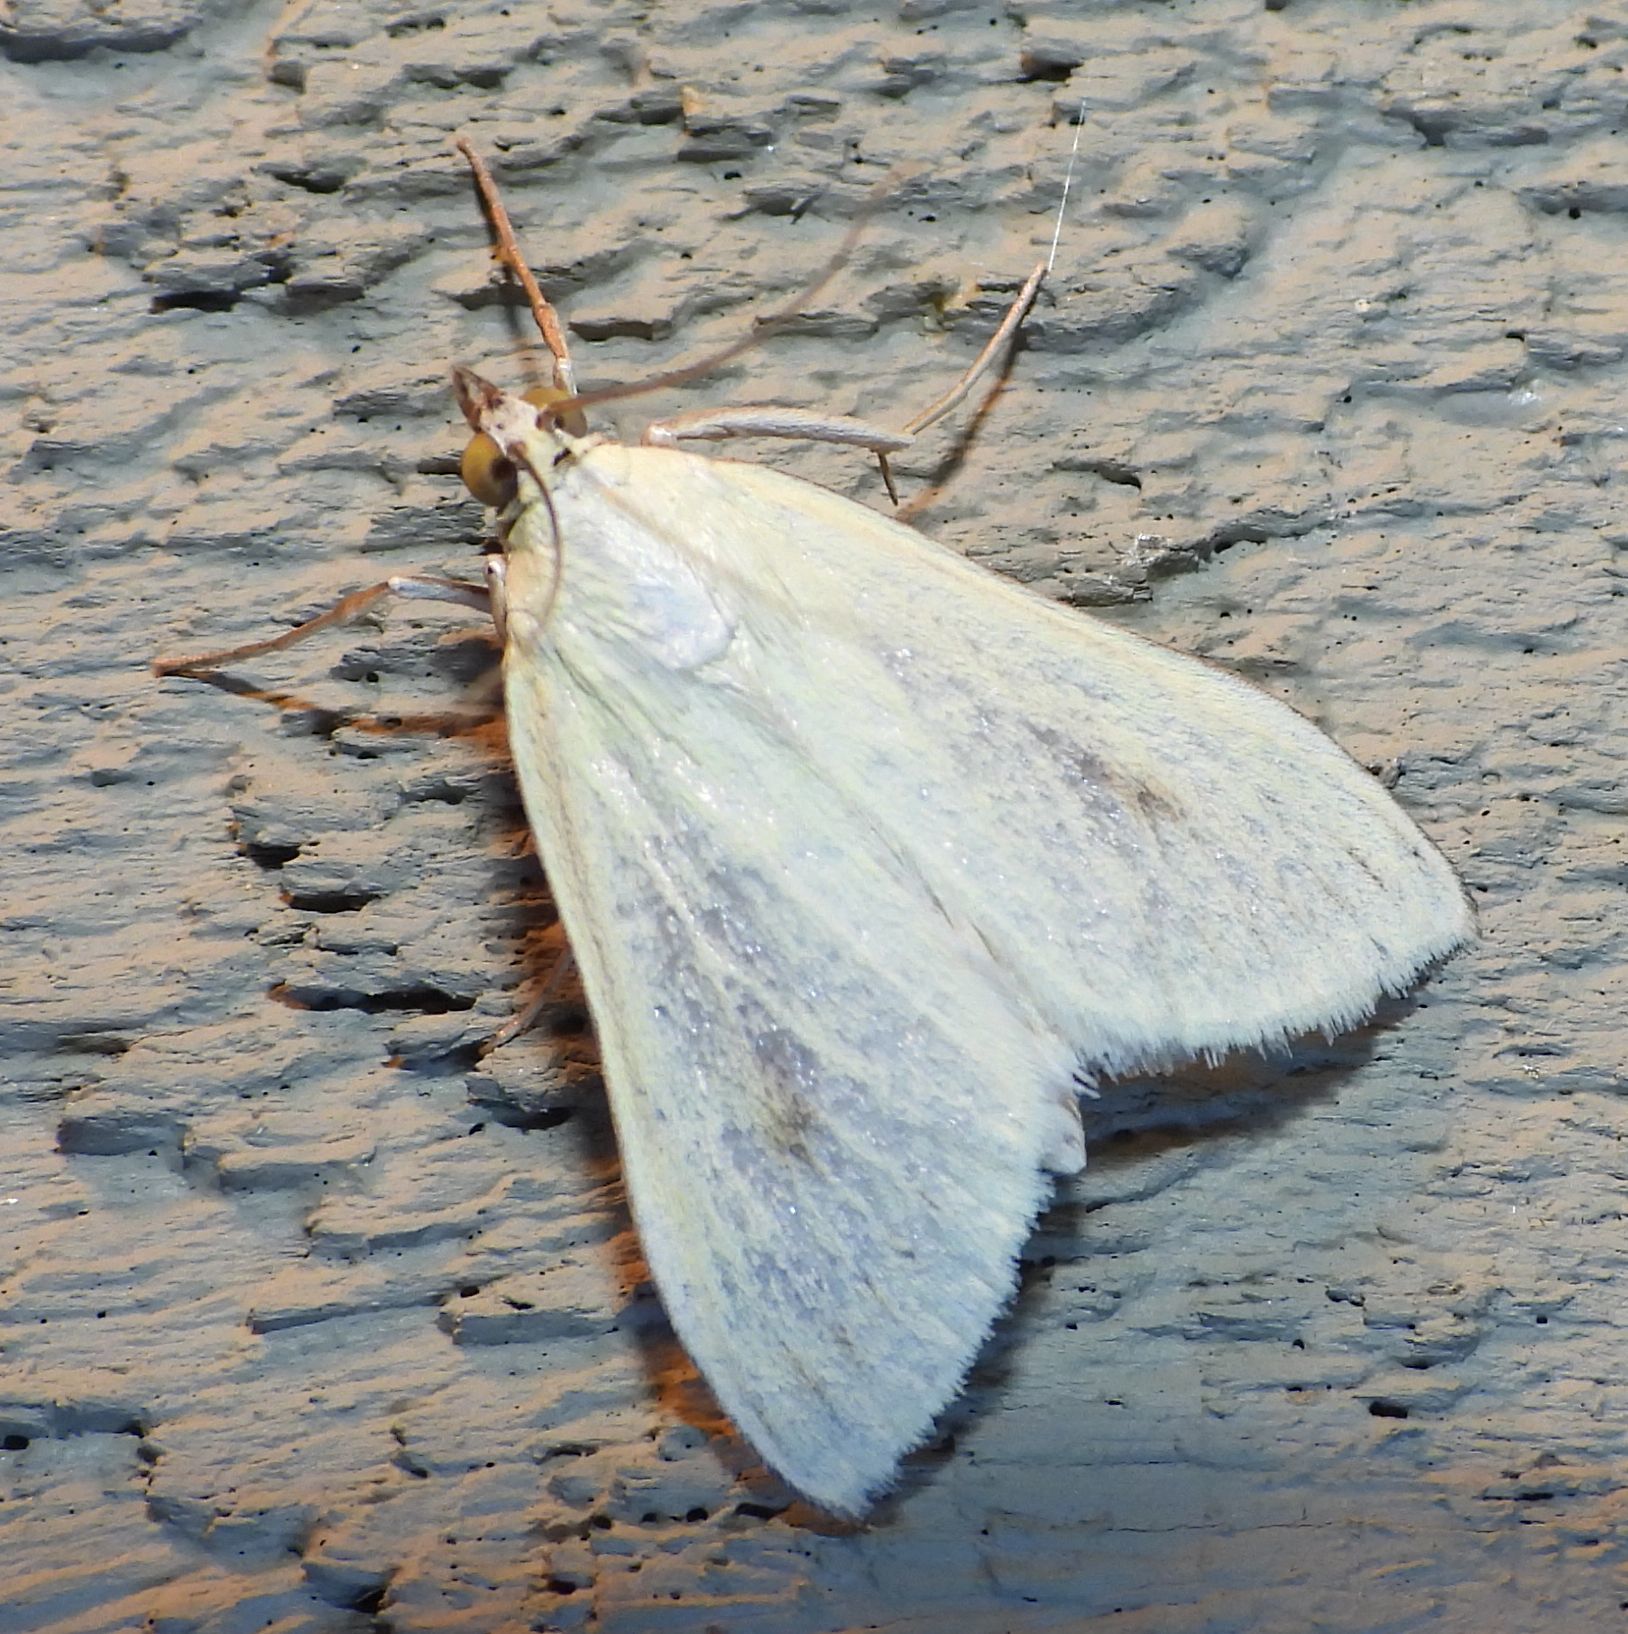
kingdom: Animalia
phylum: Arthropoda
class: Insecta
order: Lepidoptera
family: Crambidae
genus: Sitochroa
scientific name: Sitochroa palealis
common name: Greenish-yellow sitochroa moth
